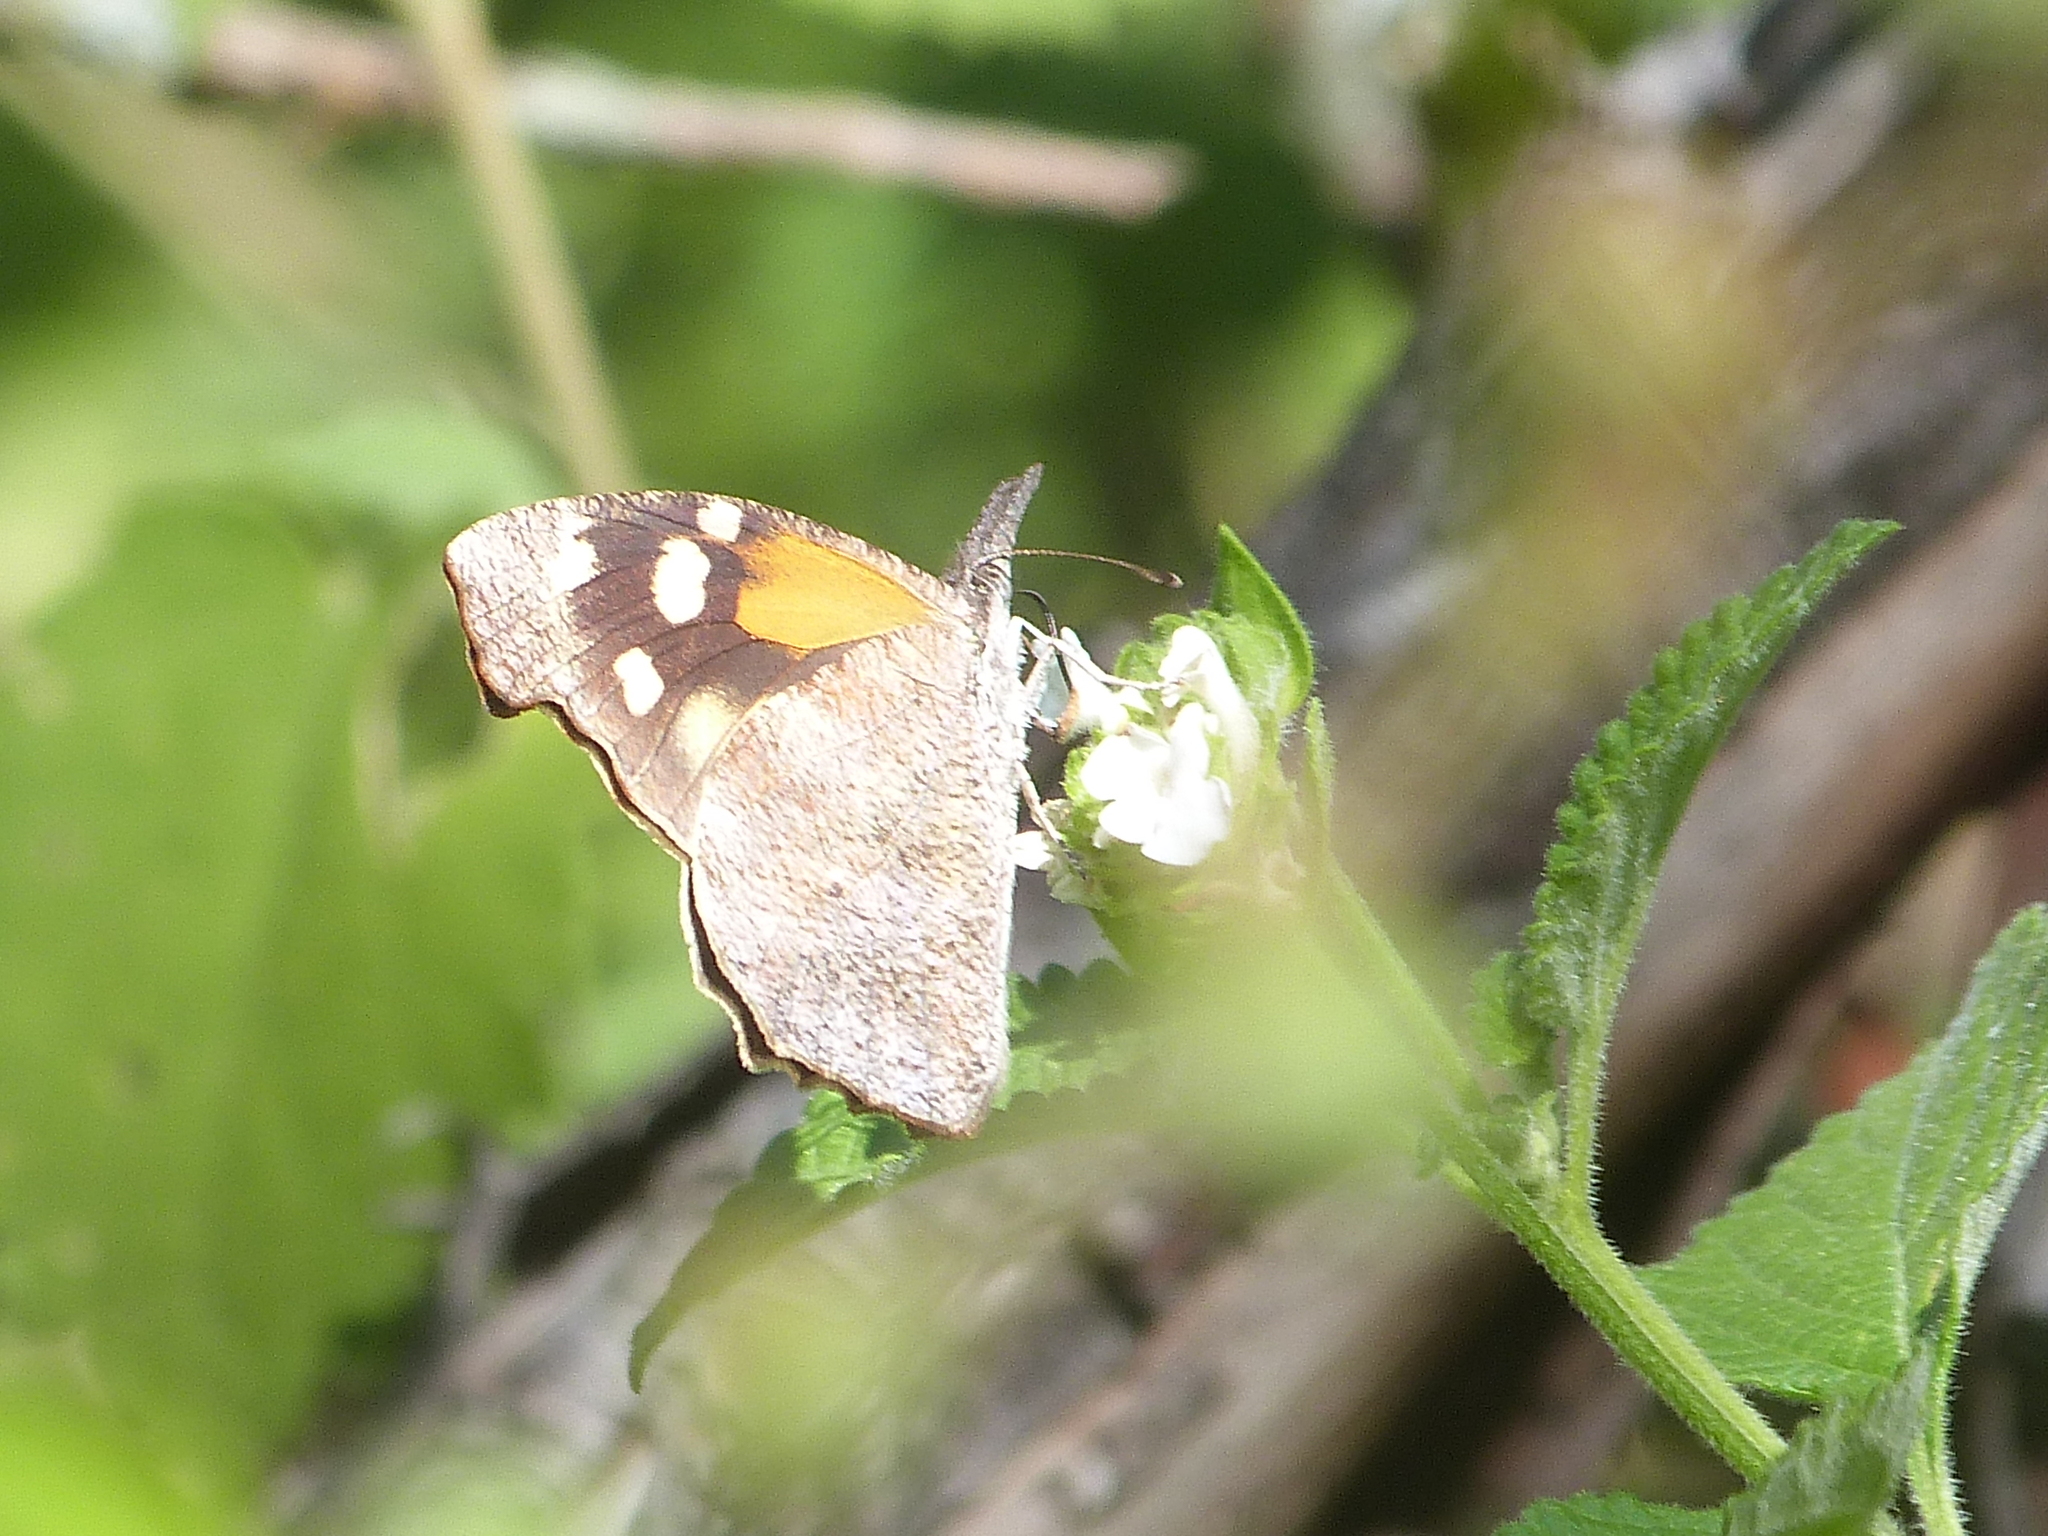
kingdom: Animalia
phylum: Arthropoda
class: Insecta
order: Lepidoptera
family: Nymphalidae
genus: Libytheana
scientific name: Libytheana carinenta
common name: American snout
